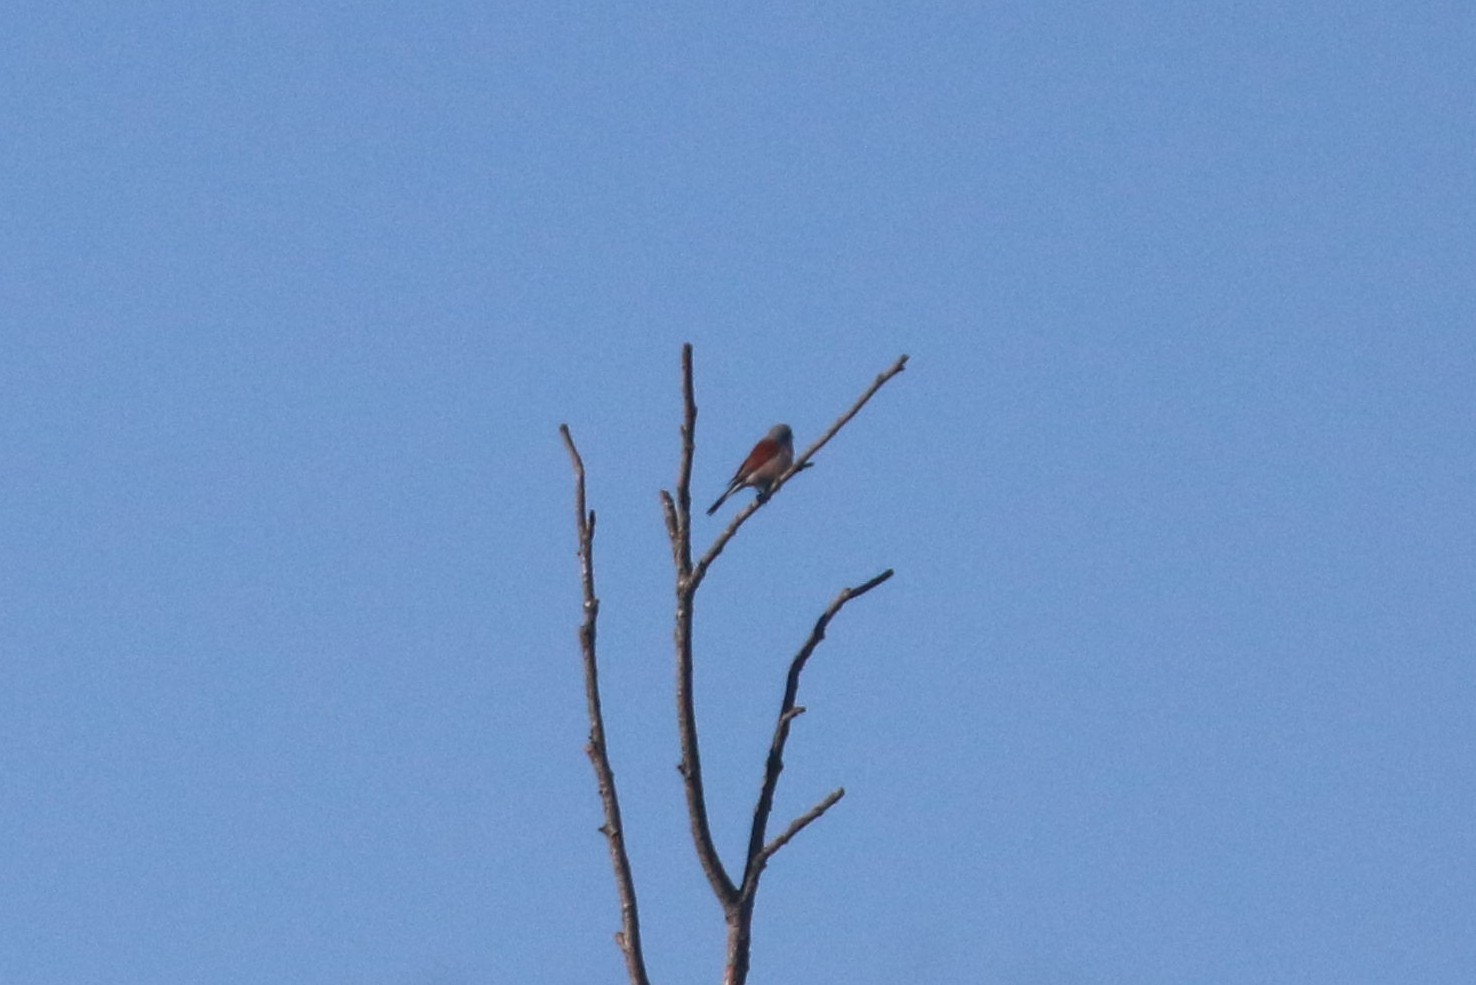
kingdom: Animalia
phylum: Chordata
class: Aves
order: Passeriformes
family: Laniidae
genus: Lanius
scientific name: Lanius collurio
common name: Red-backed shrike
